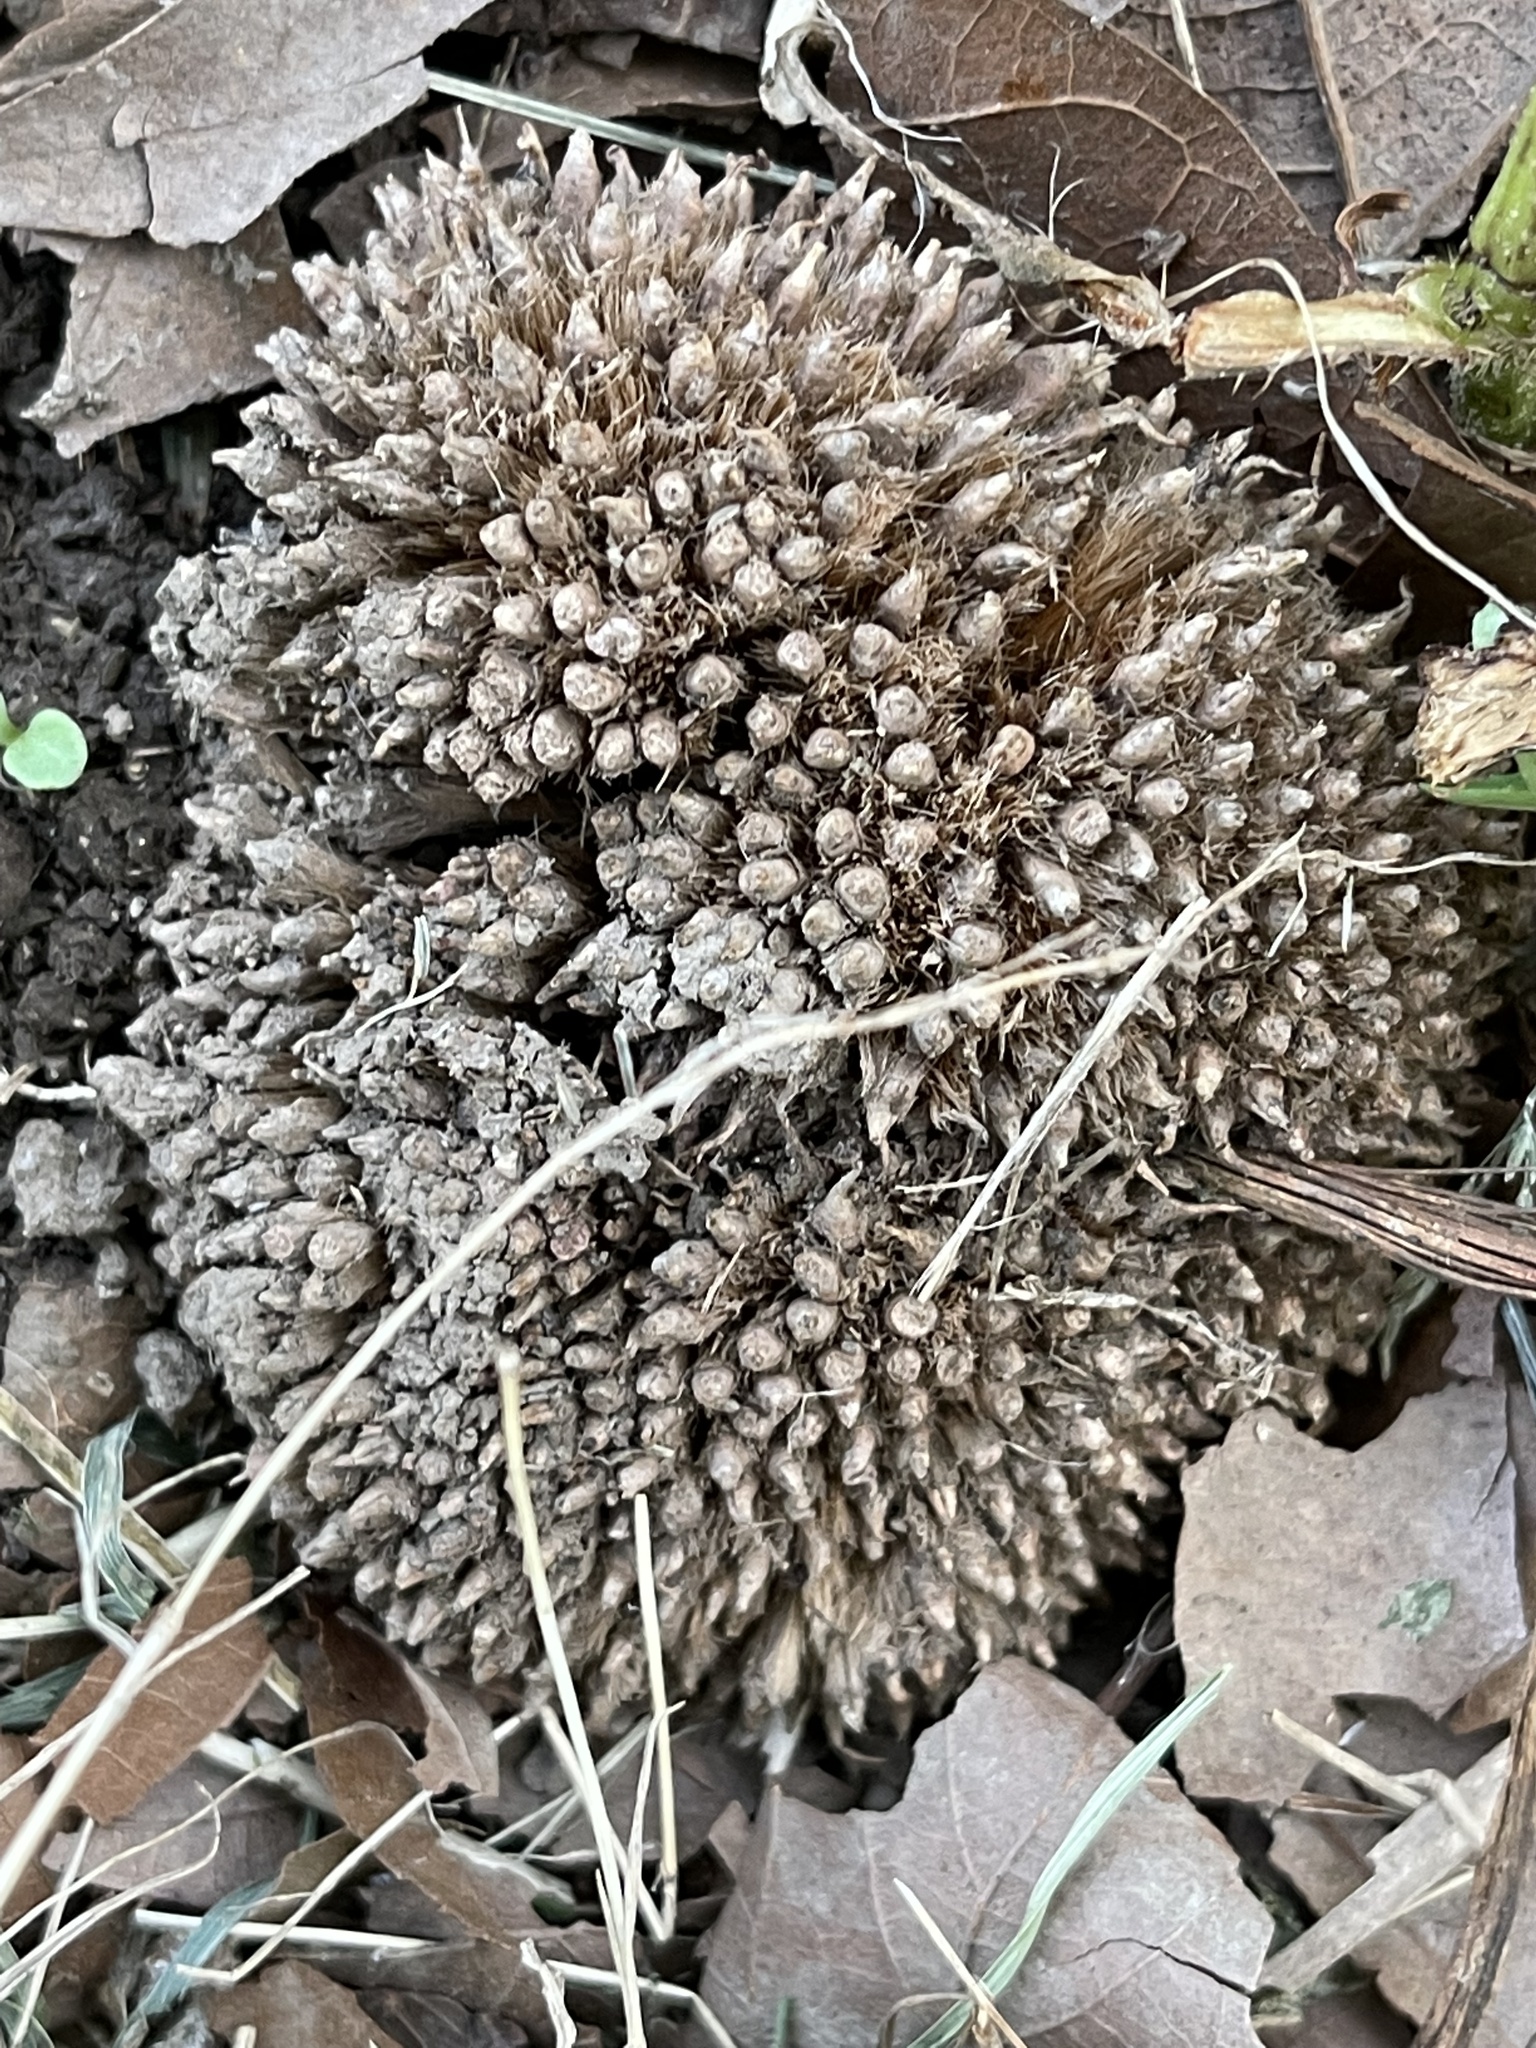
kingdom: Plantae
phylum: Tracheophyta
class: Magnoliopsida
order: Proteales
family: Platanaceae
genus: Platanus
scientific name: Platanus
